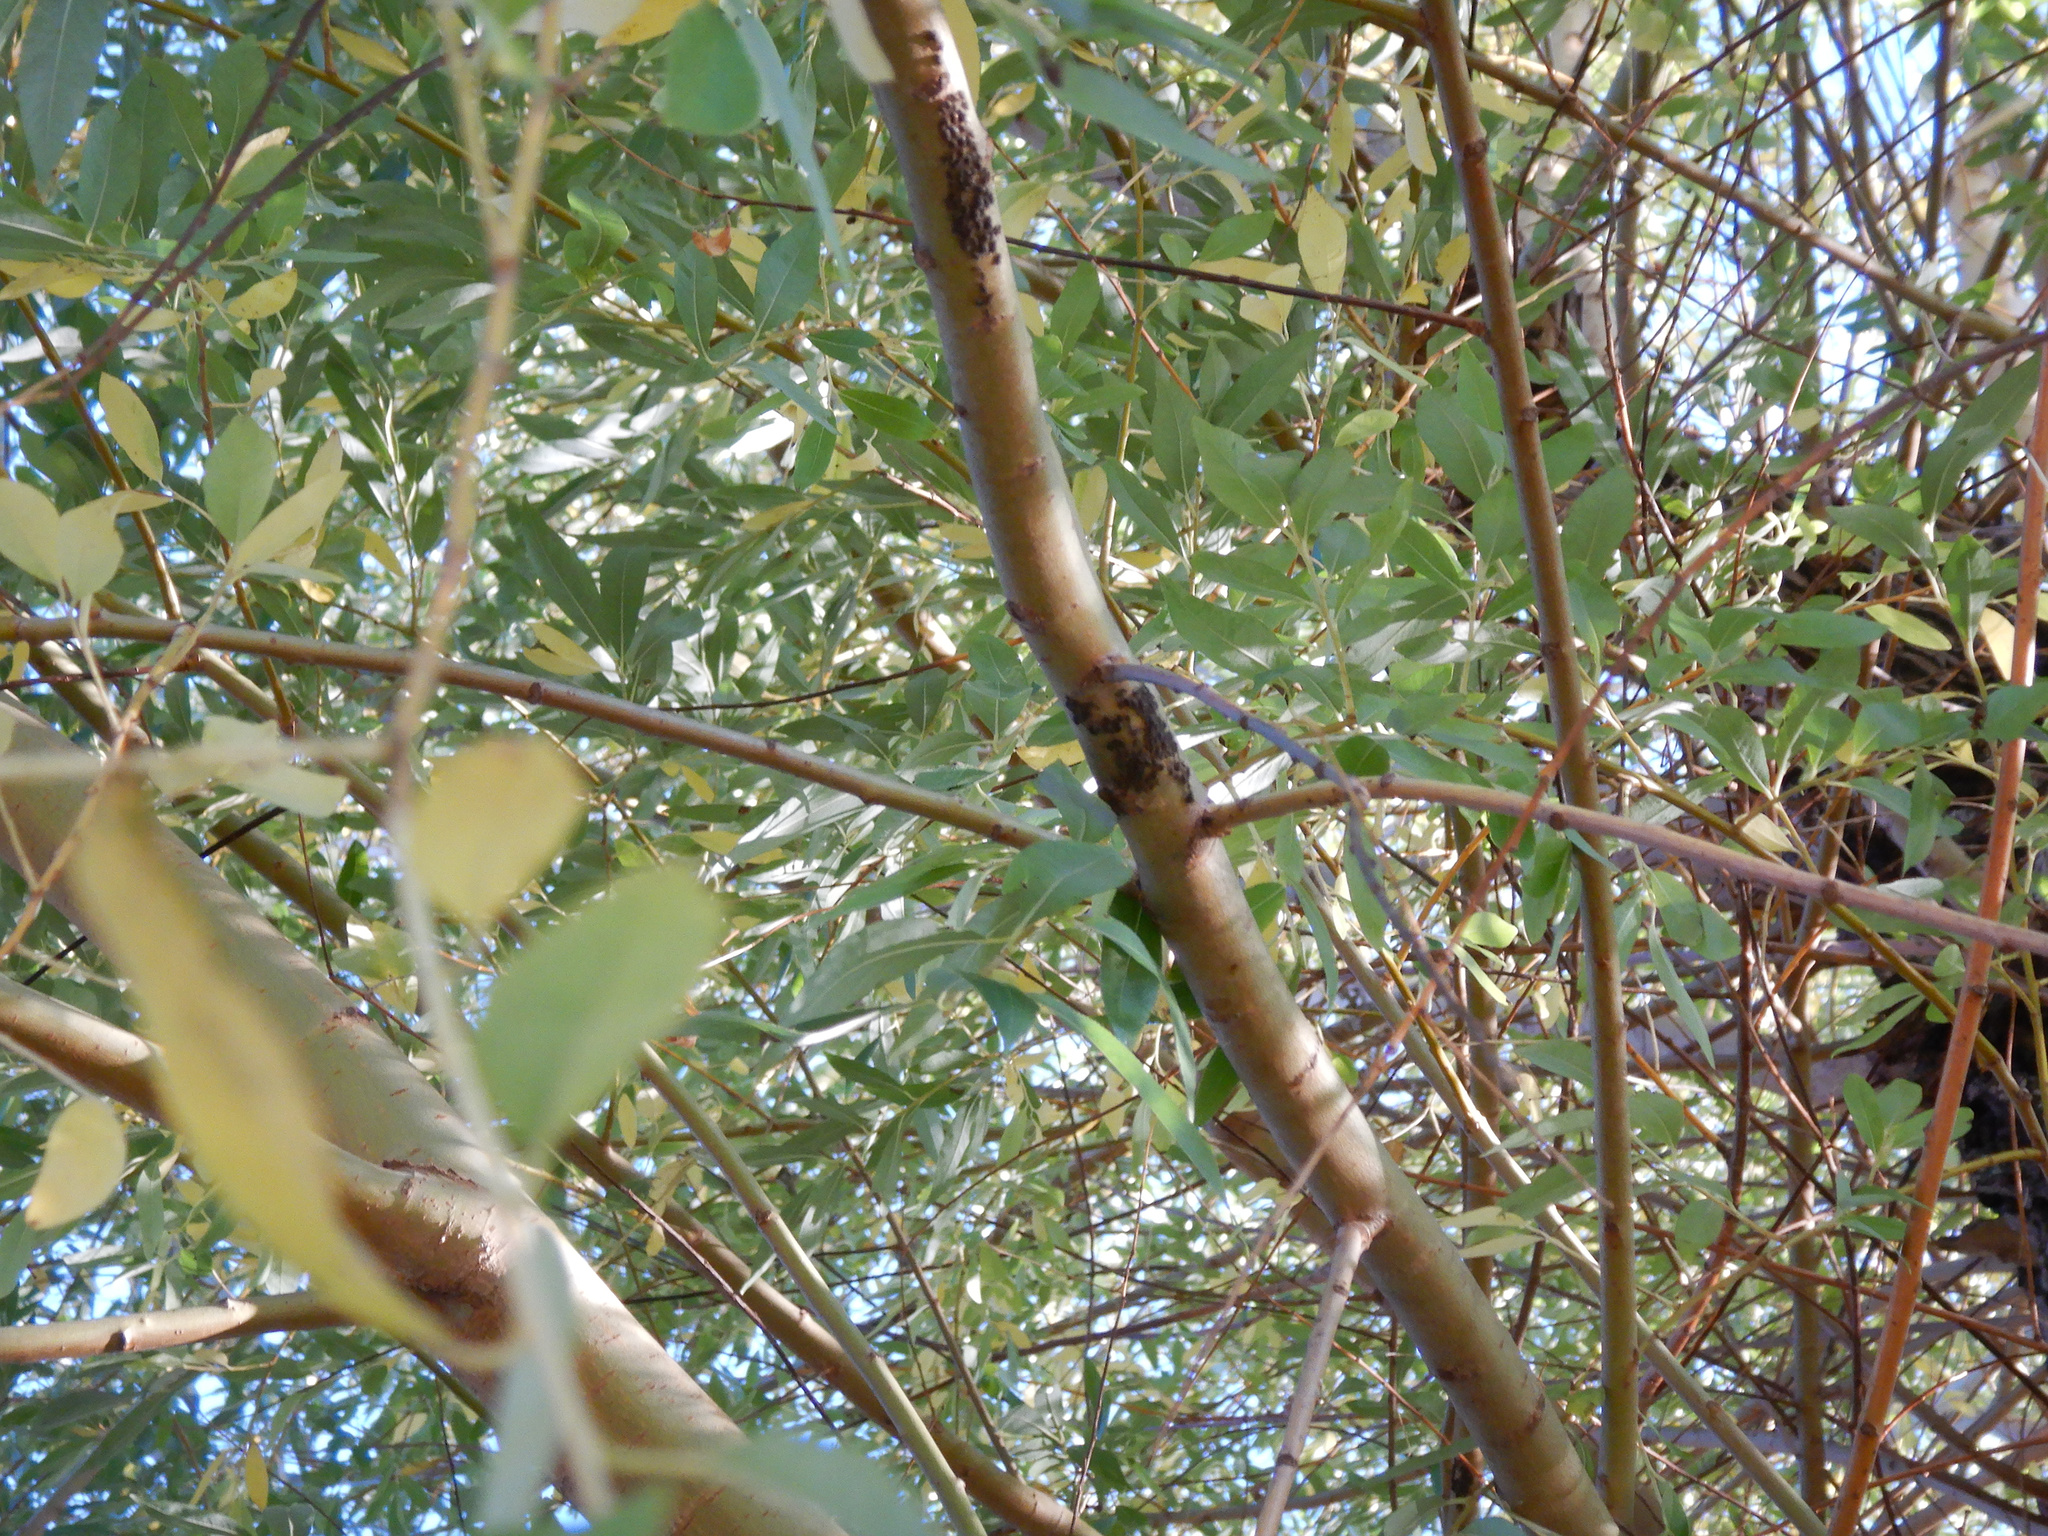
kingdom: Animalia
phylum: Arthropoda
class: Insecta
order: Hemiptera
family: Aphididae
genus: Tuberolachnus
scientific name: Tuberolachnus salignus
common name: Giant willow aphid
